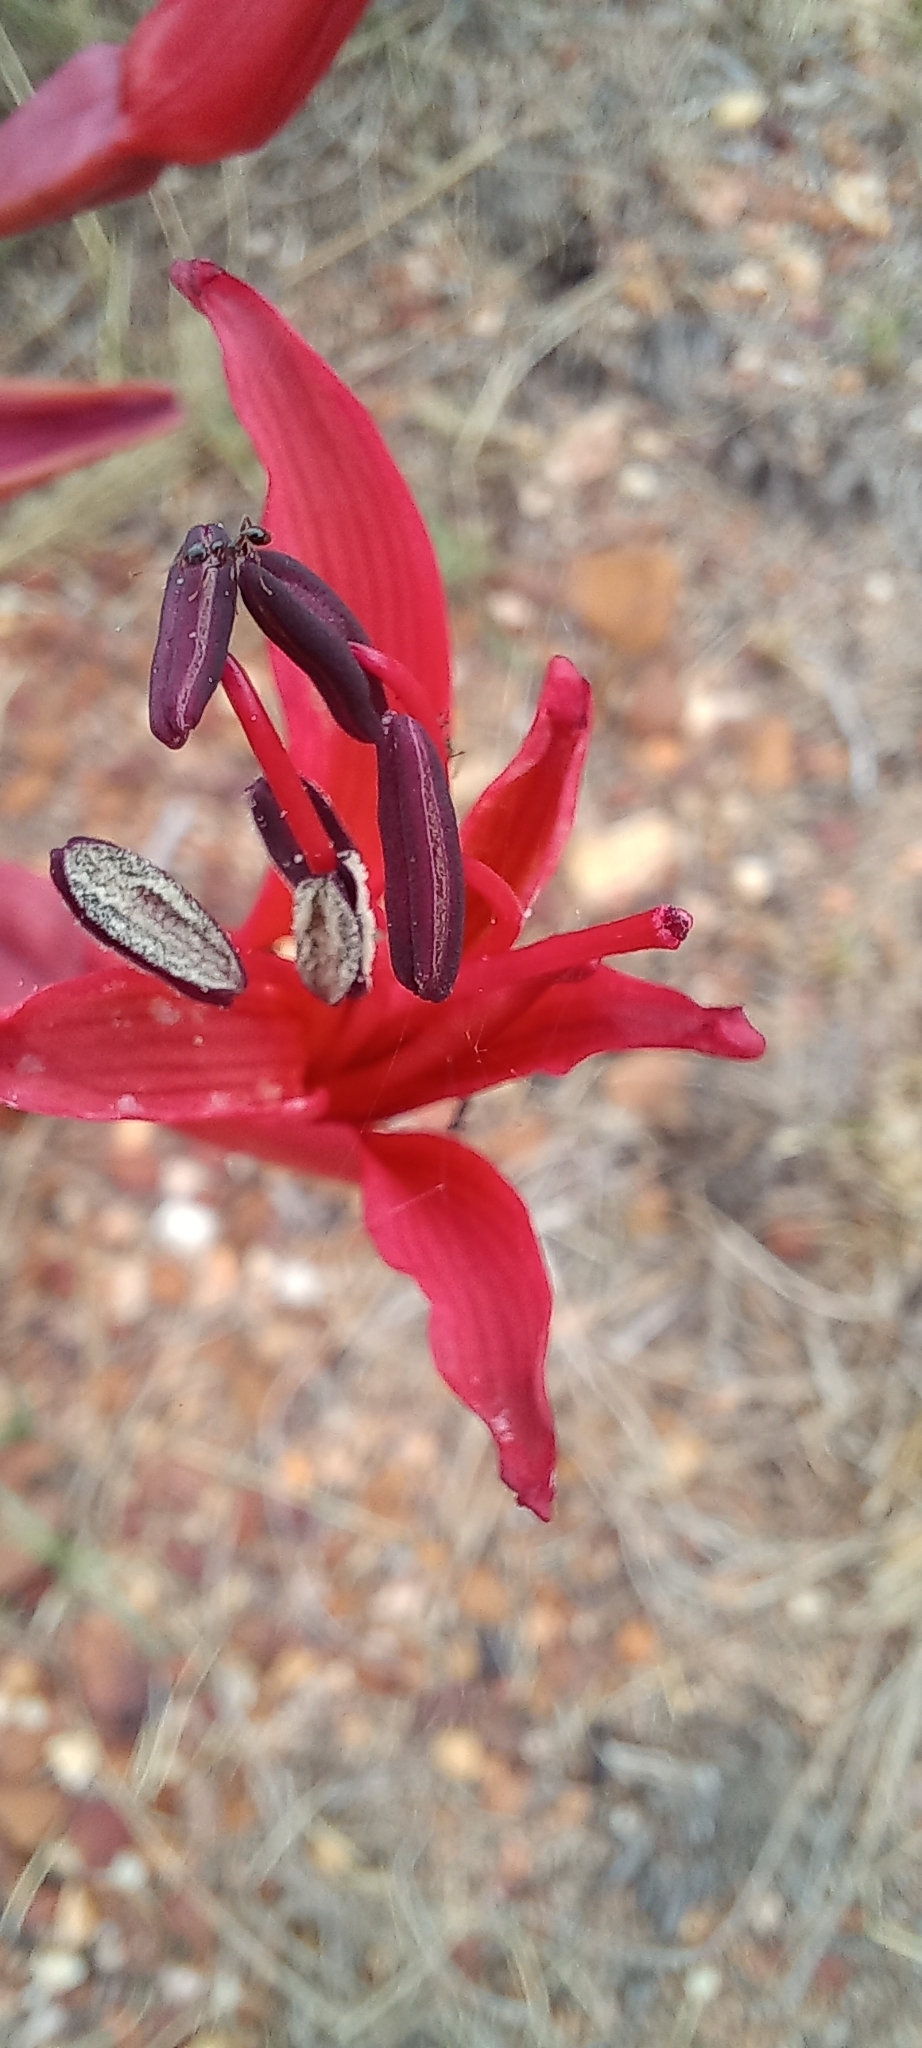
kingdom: Plantae
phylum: Tracheophyta
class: Liliopsida
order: Asparagales
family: Amaryllidaceae
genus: Brunsvigia
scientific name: Brunsvigia orientalis
